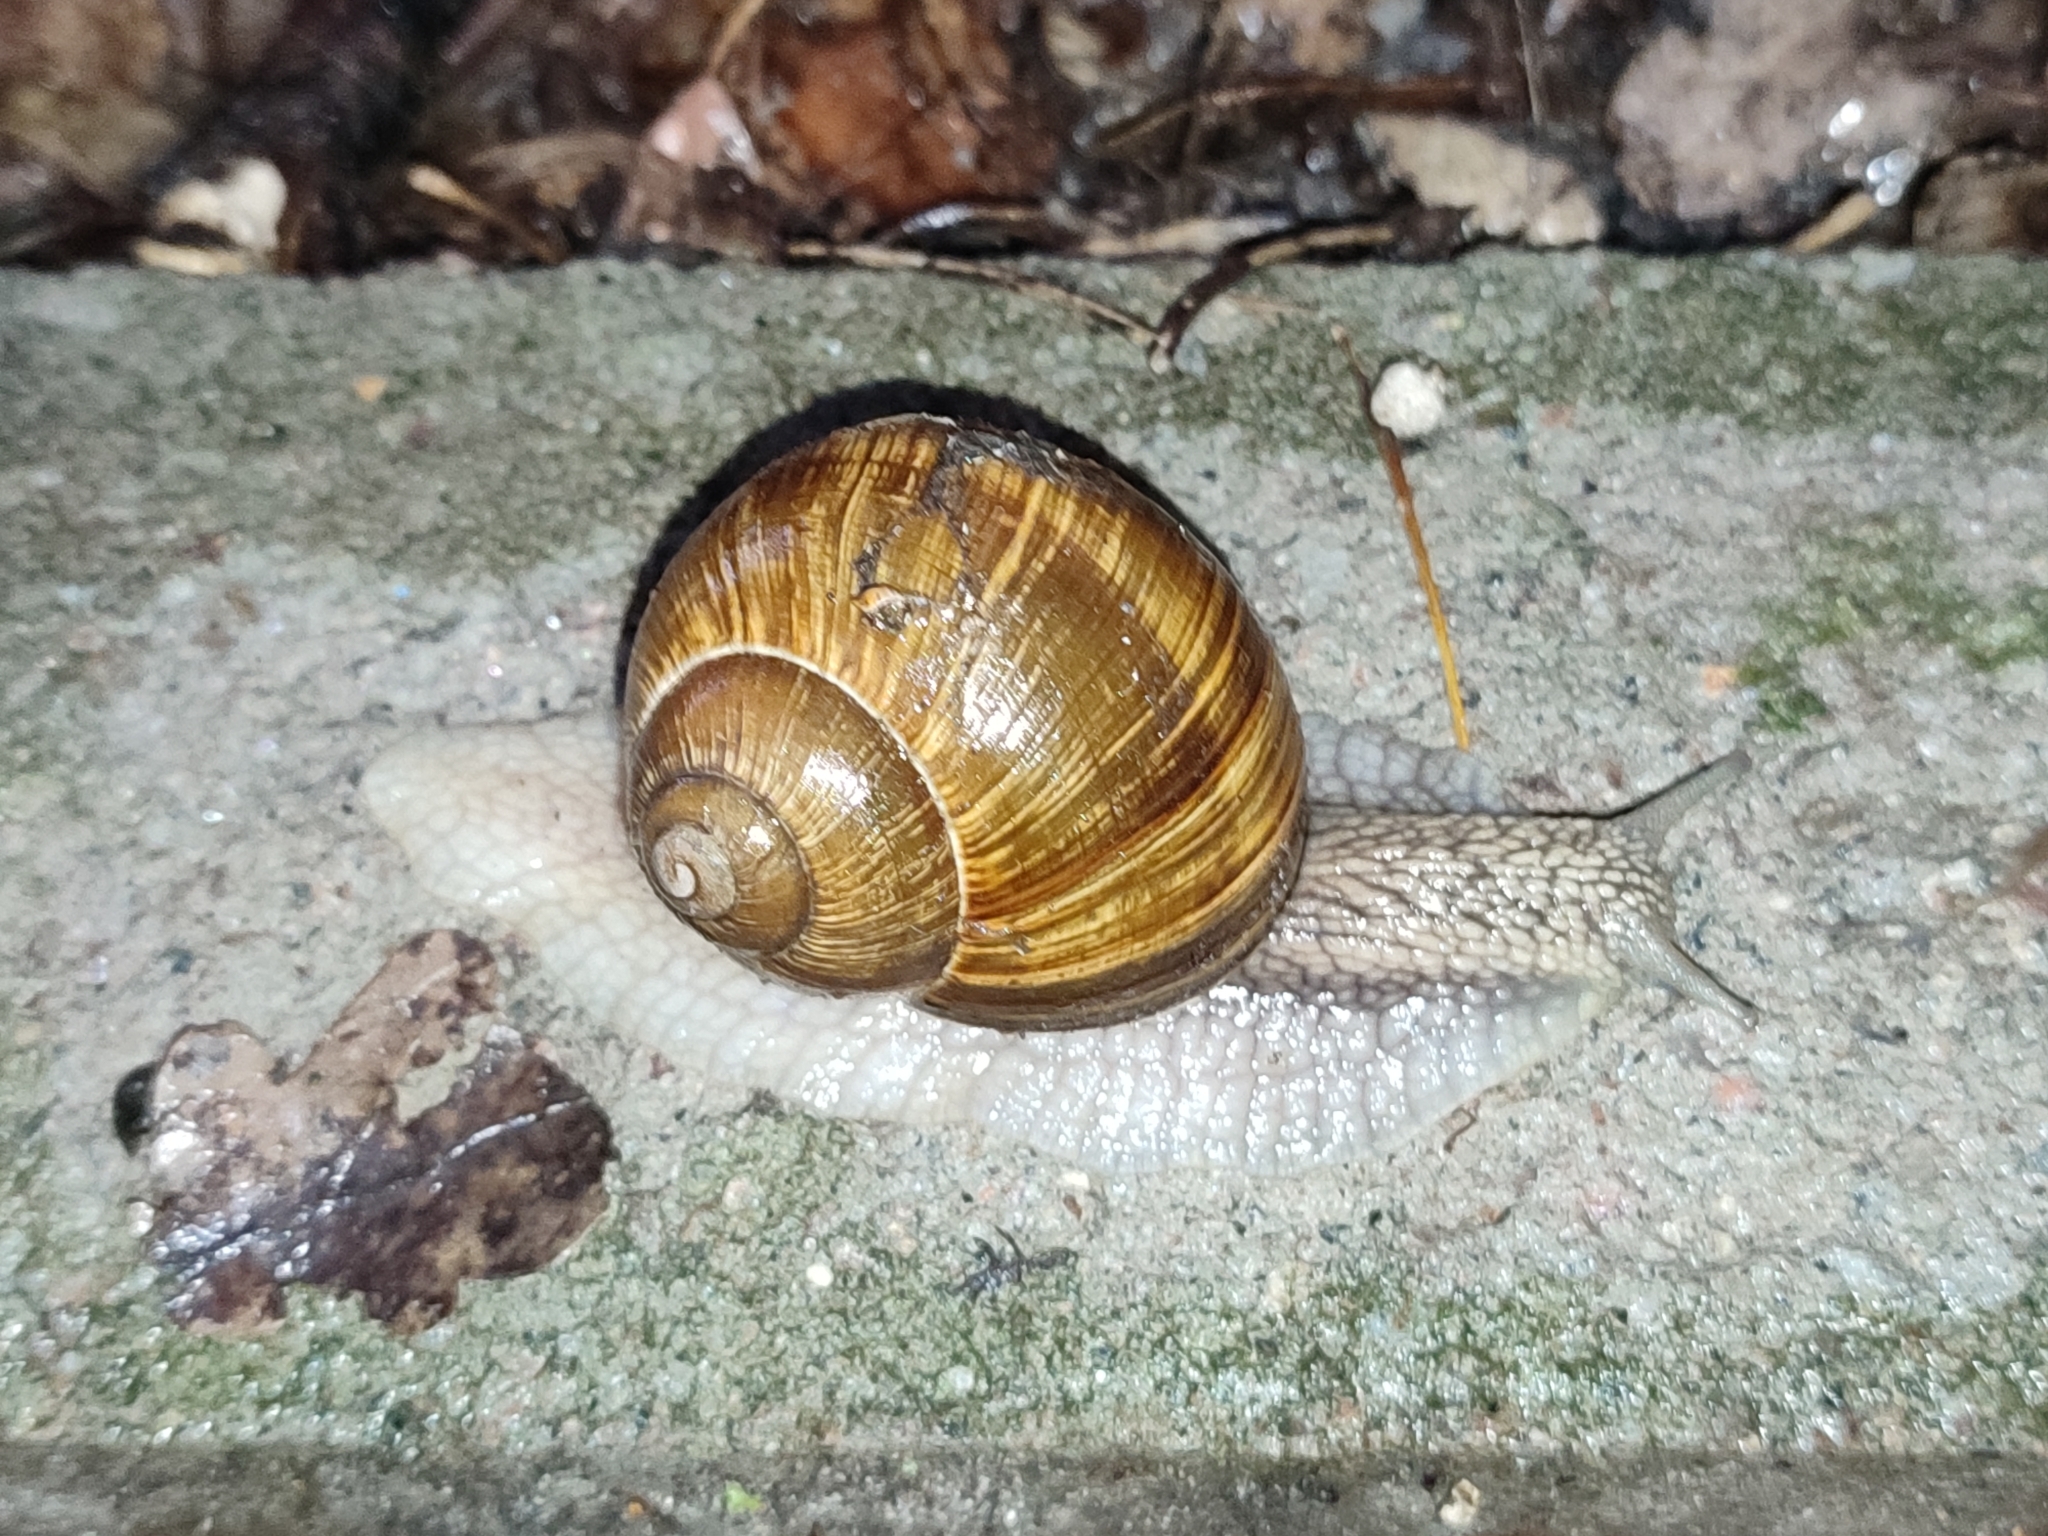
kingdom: Animalia
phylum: Mollusca
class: Gastropoda
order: Stylommatophora
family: Helicidae
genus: Helix
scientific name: Helix pomatia
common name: Roman snail
